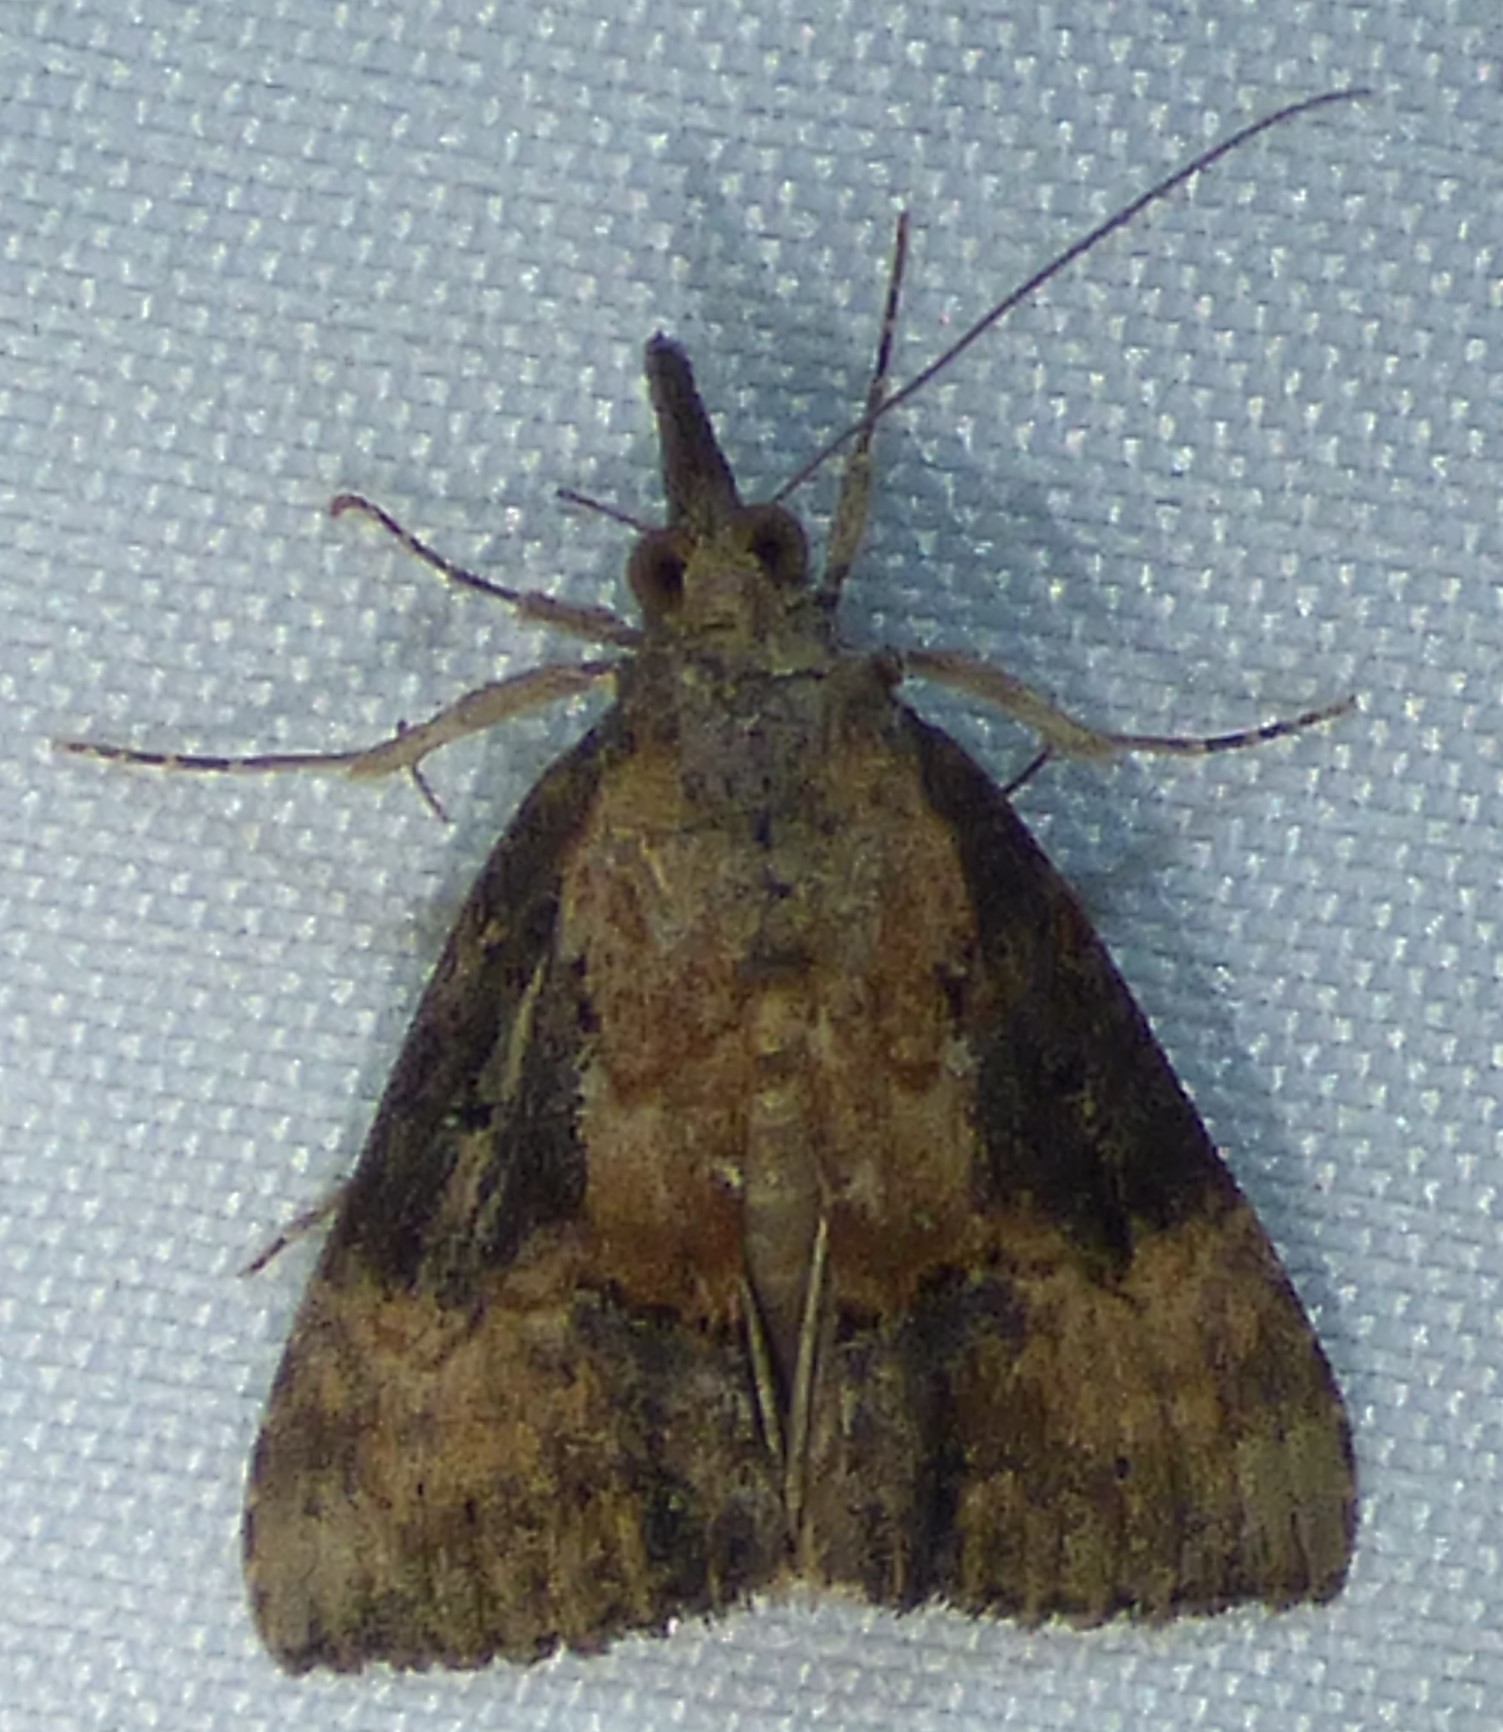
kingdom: Animalia
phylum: Arthropoda
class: Insecta
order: Lepidoptera
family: Erebidae
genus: Hypena
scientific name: Hypena scabra
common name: Green cloverworm
